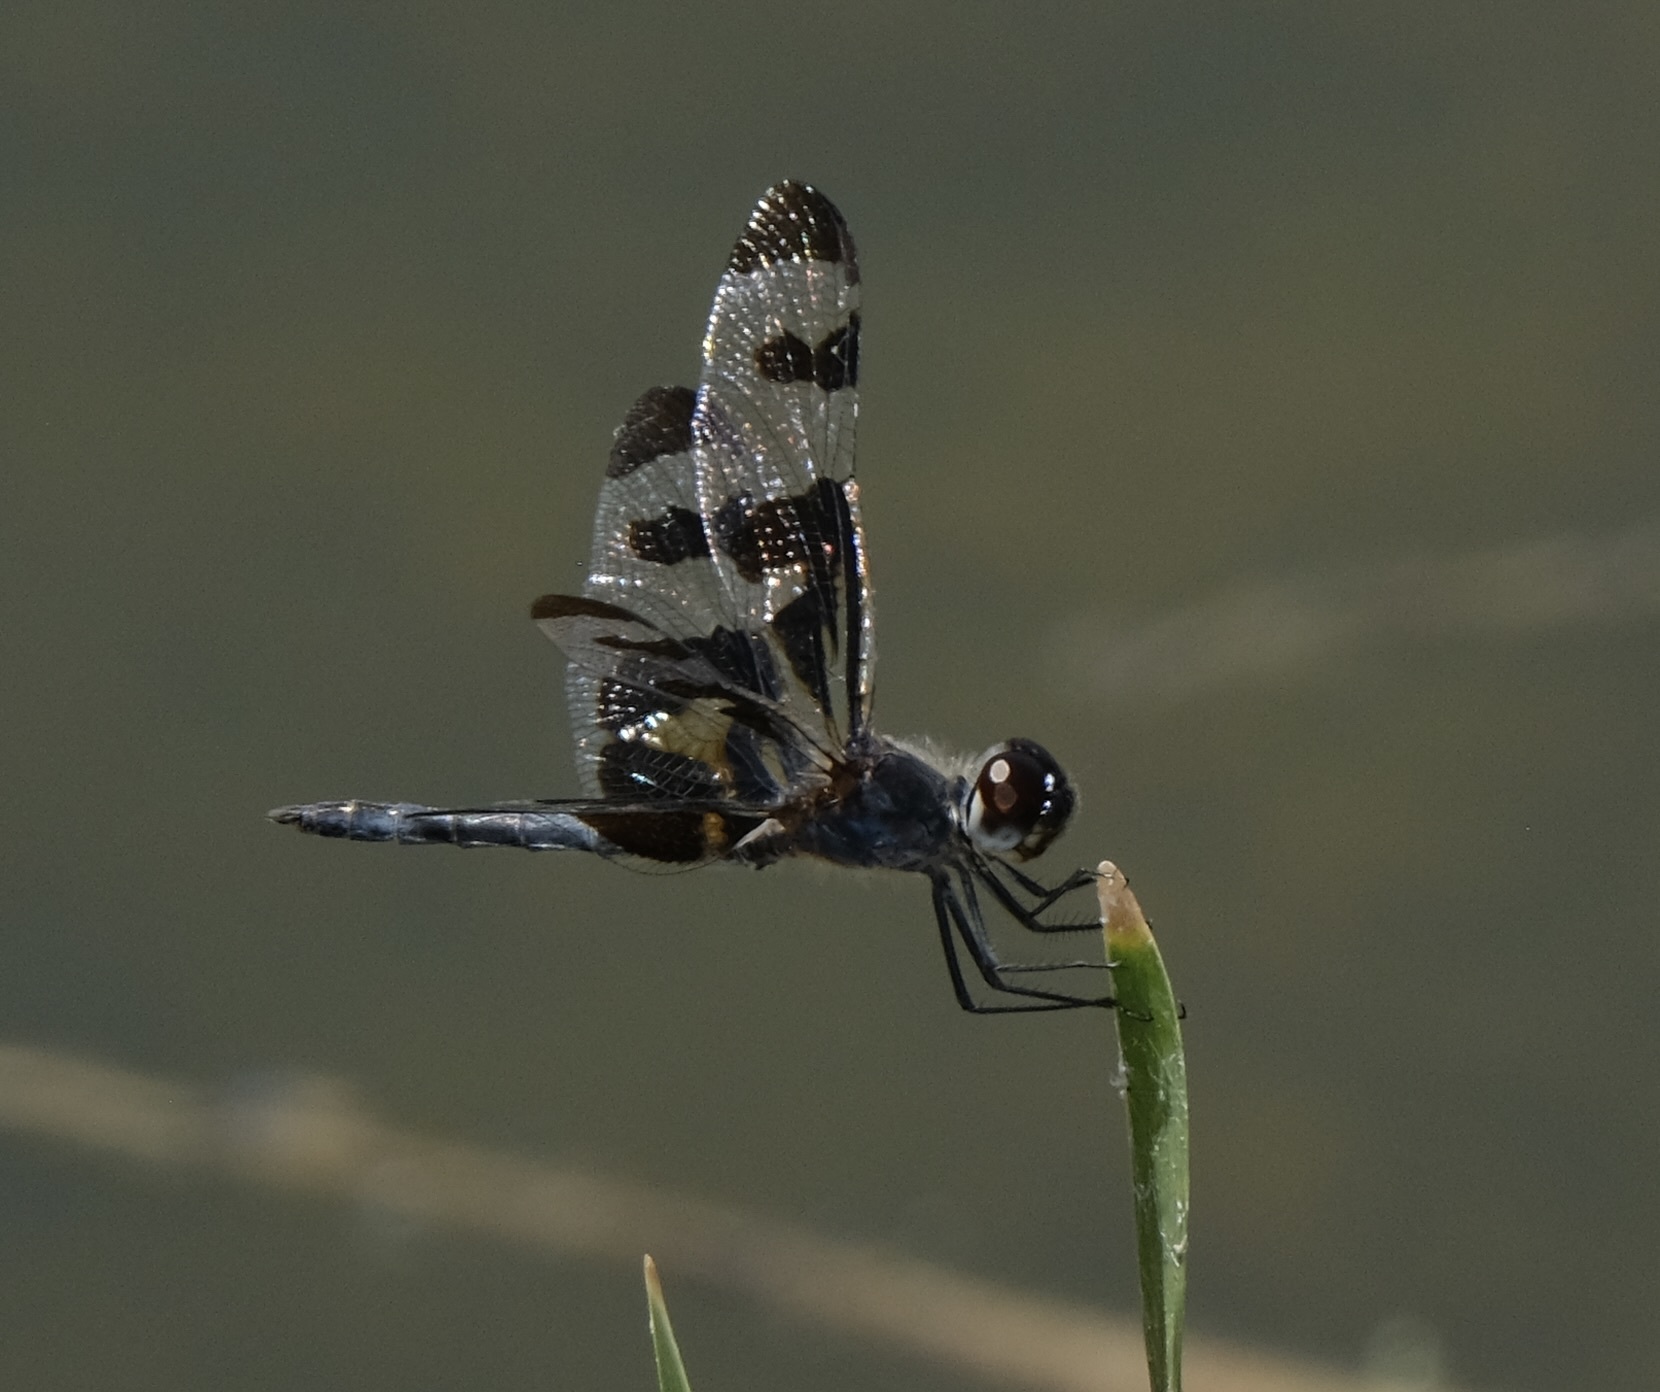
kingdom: Animalia
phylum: Arthropoda
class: Insecta
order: Odonata
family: Libellulidae
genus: Celithemis
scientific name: Celithemis fasciata
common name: Banded pennant
